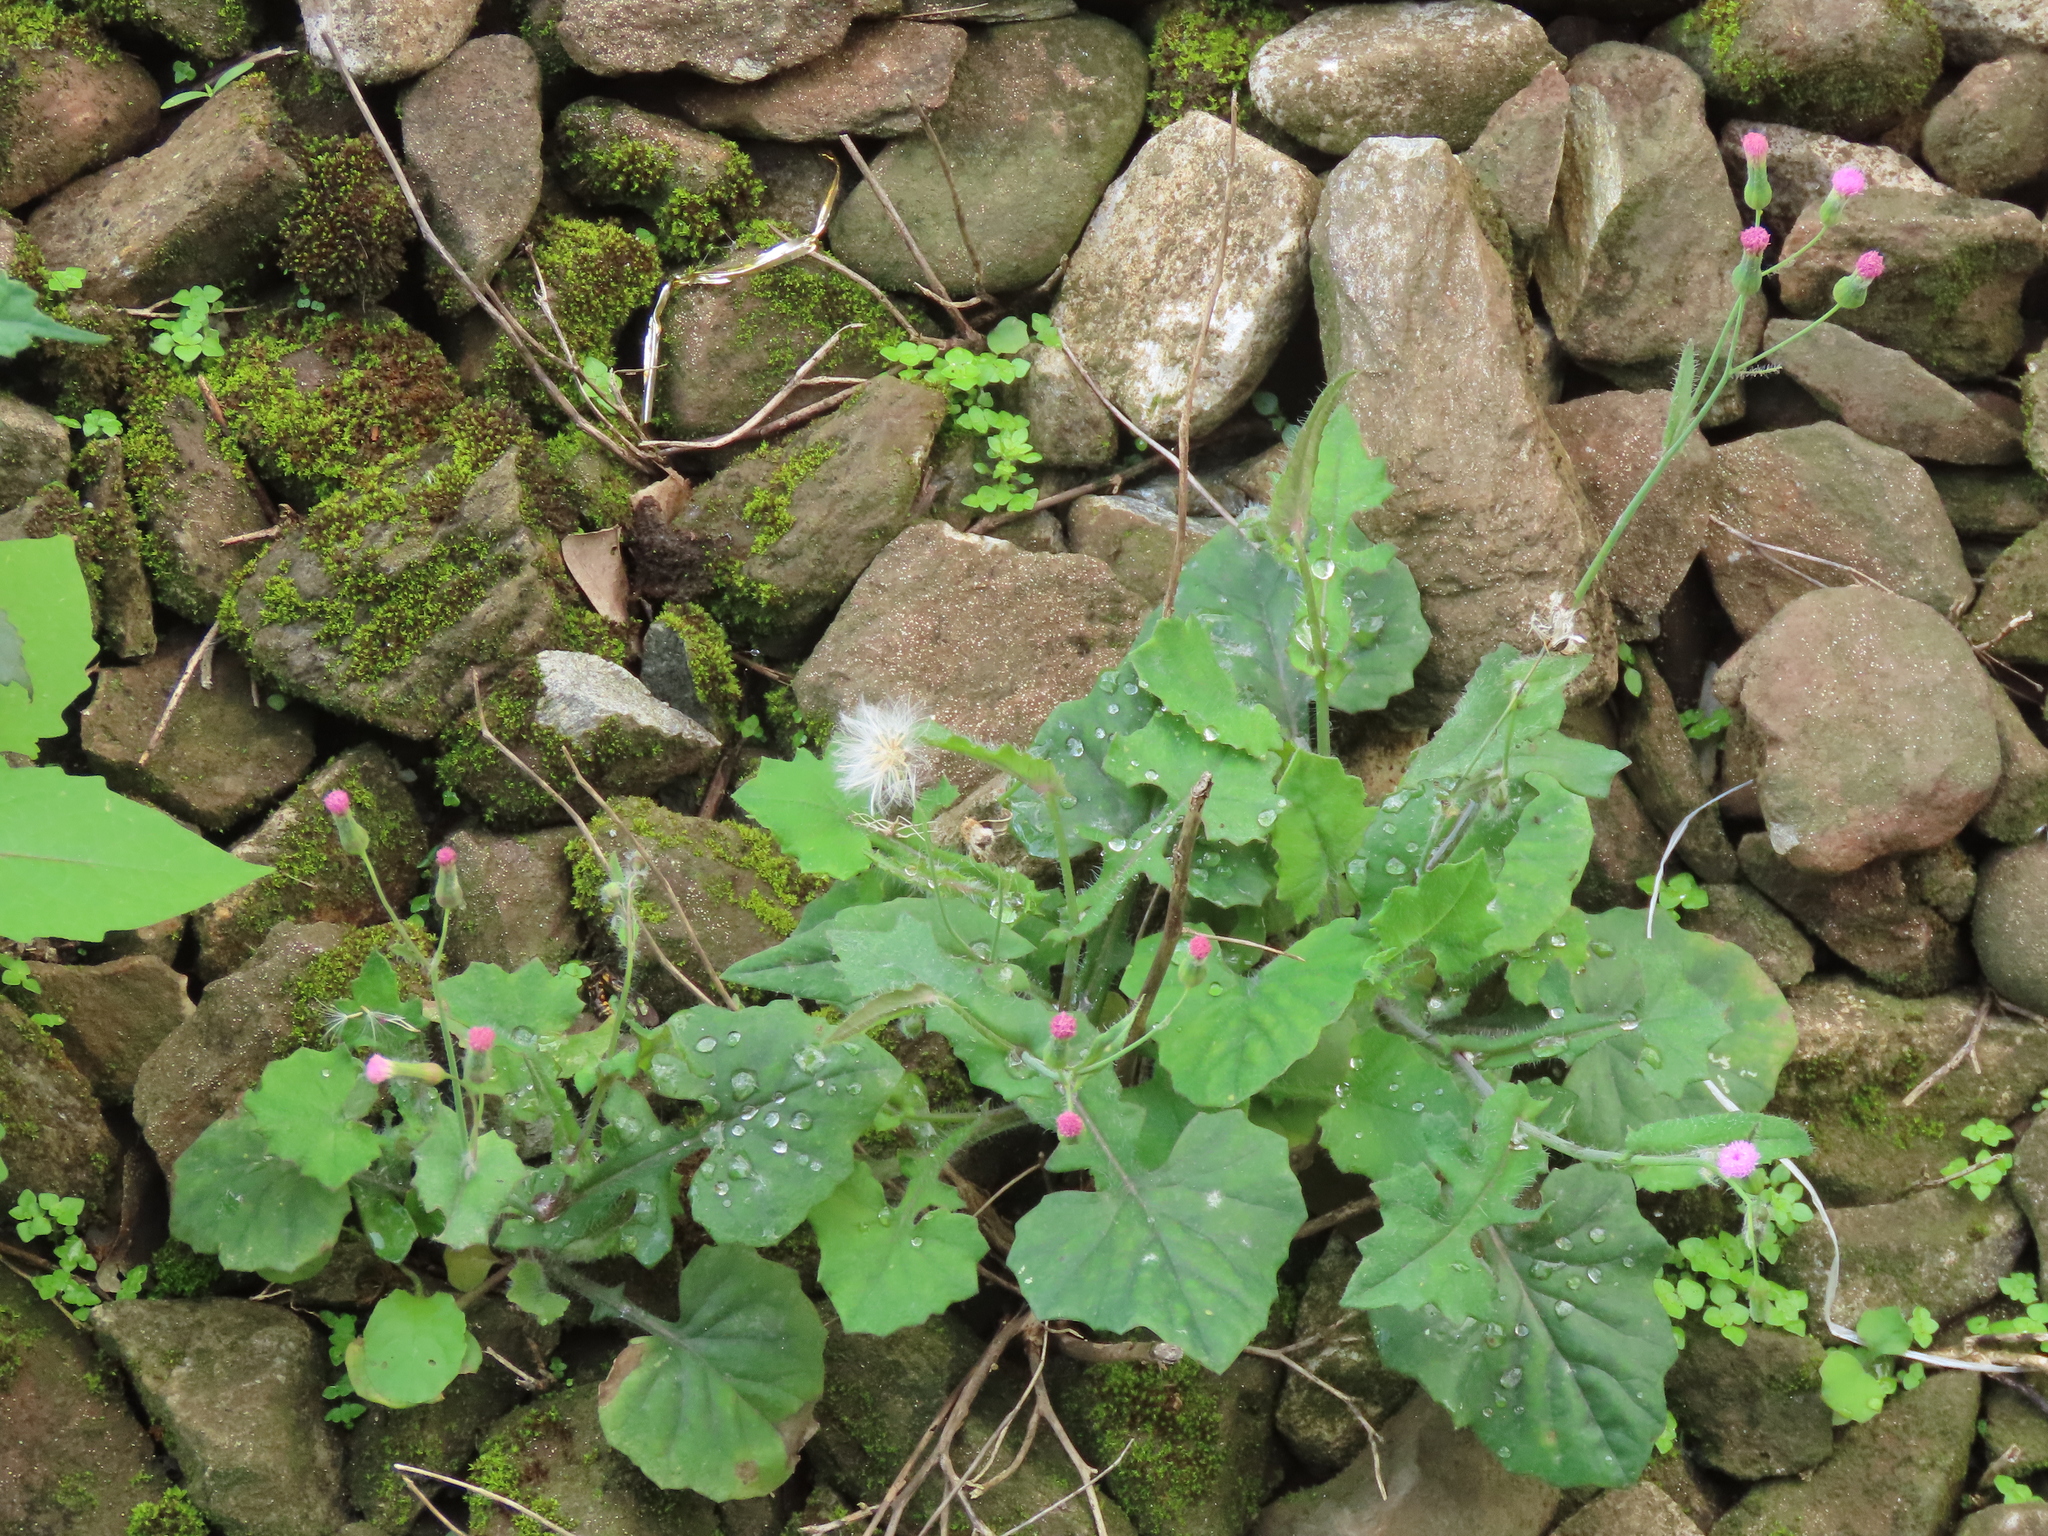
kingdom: Plantae
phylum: Tracheophyta
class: Magnoliopsida
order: Asterales
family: Asteraceae
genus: Emilia
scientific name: Emilia javanica
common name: Tassel-flower
